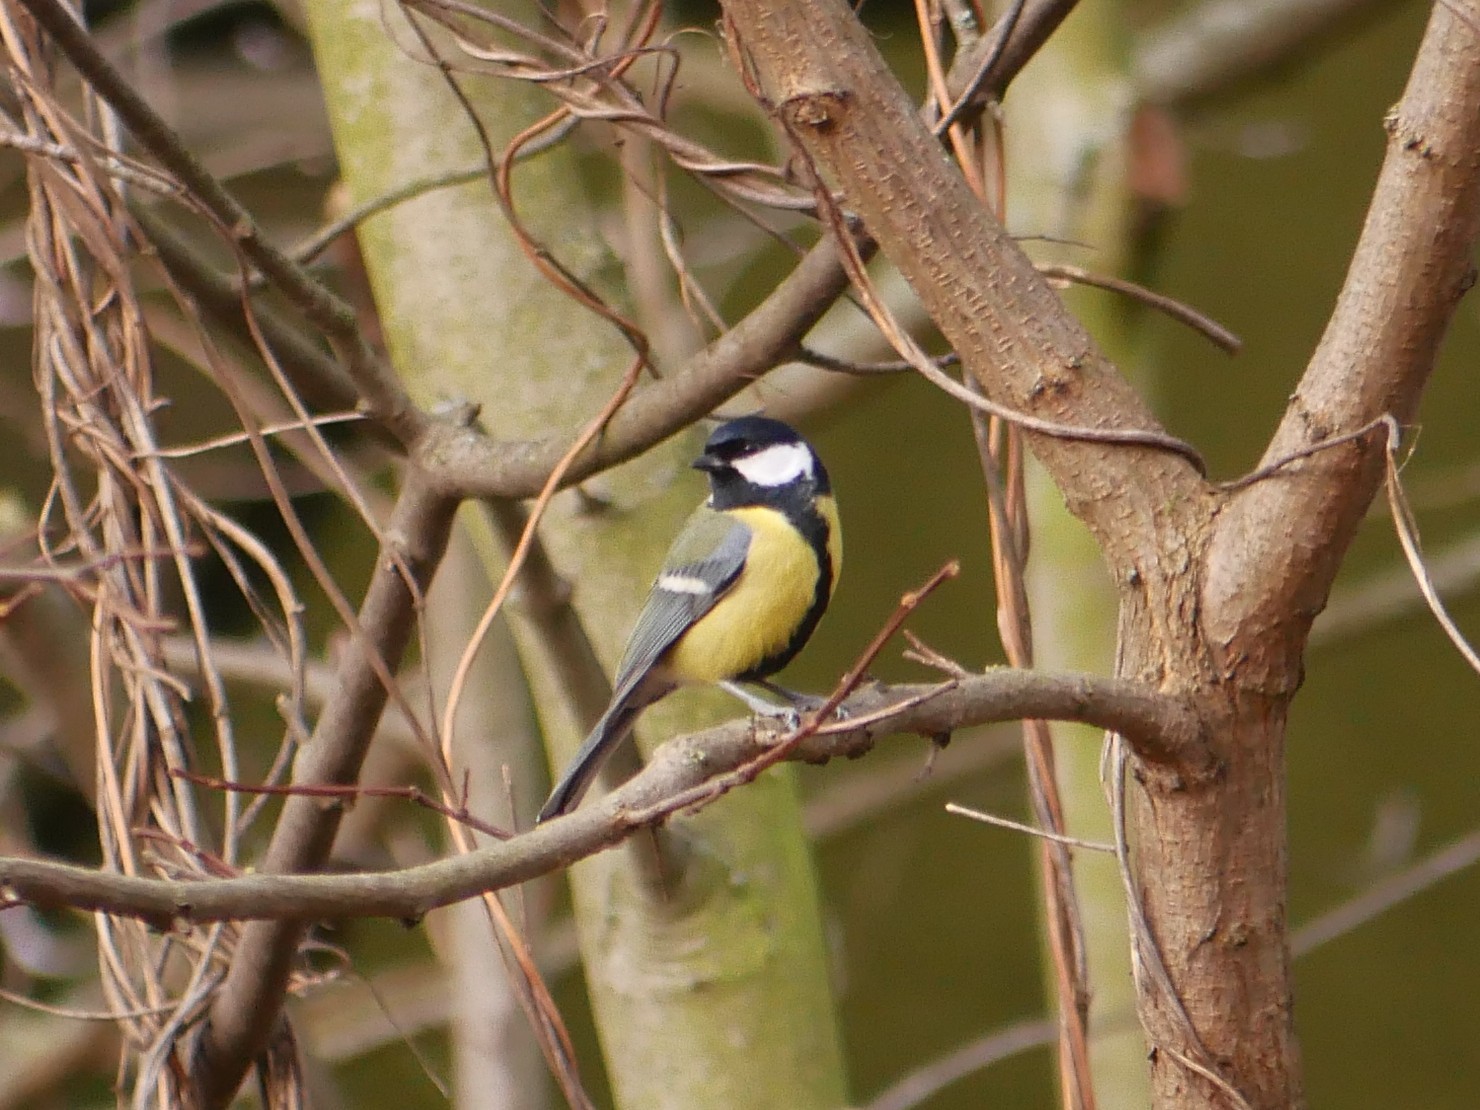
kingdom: Animalia
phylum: Chordata
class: Aves
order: Passeriformes
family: Paridae
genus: Parus
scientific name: Parus major
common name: Great tit
